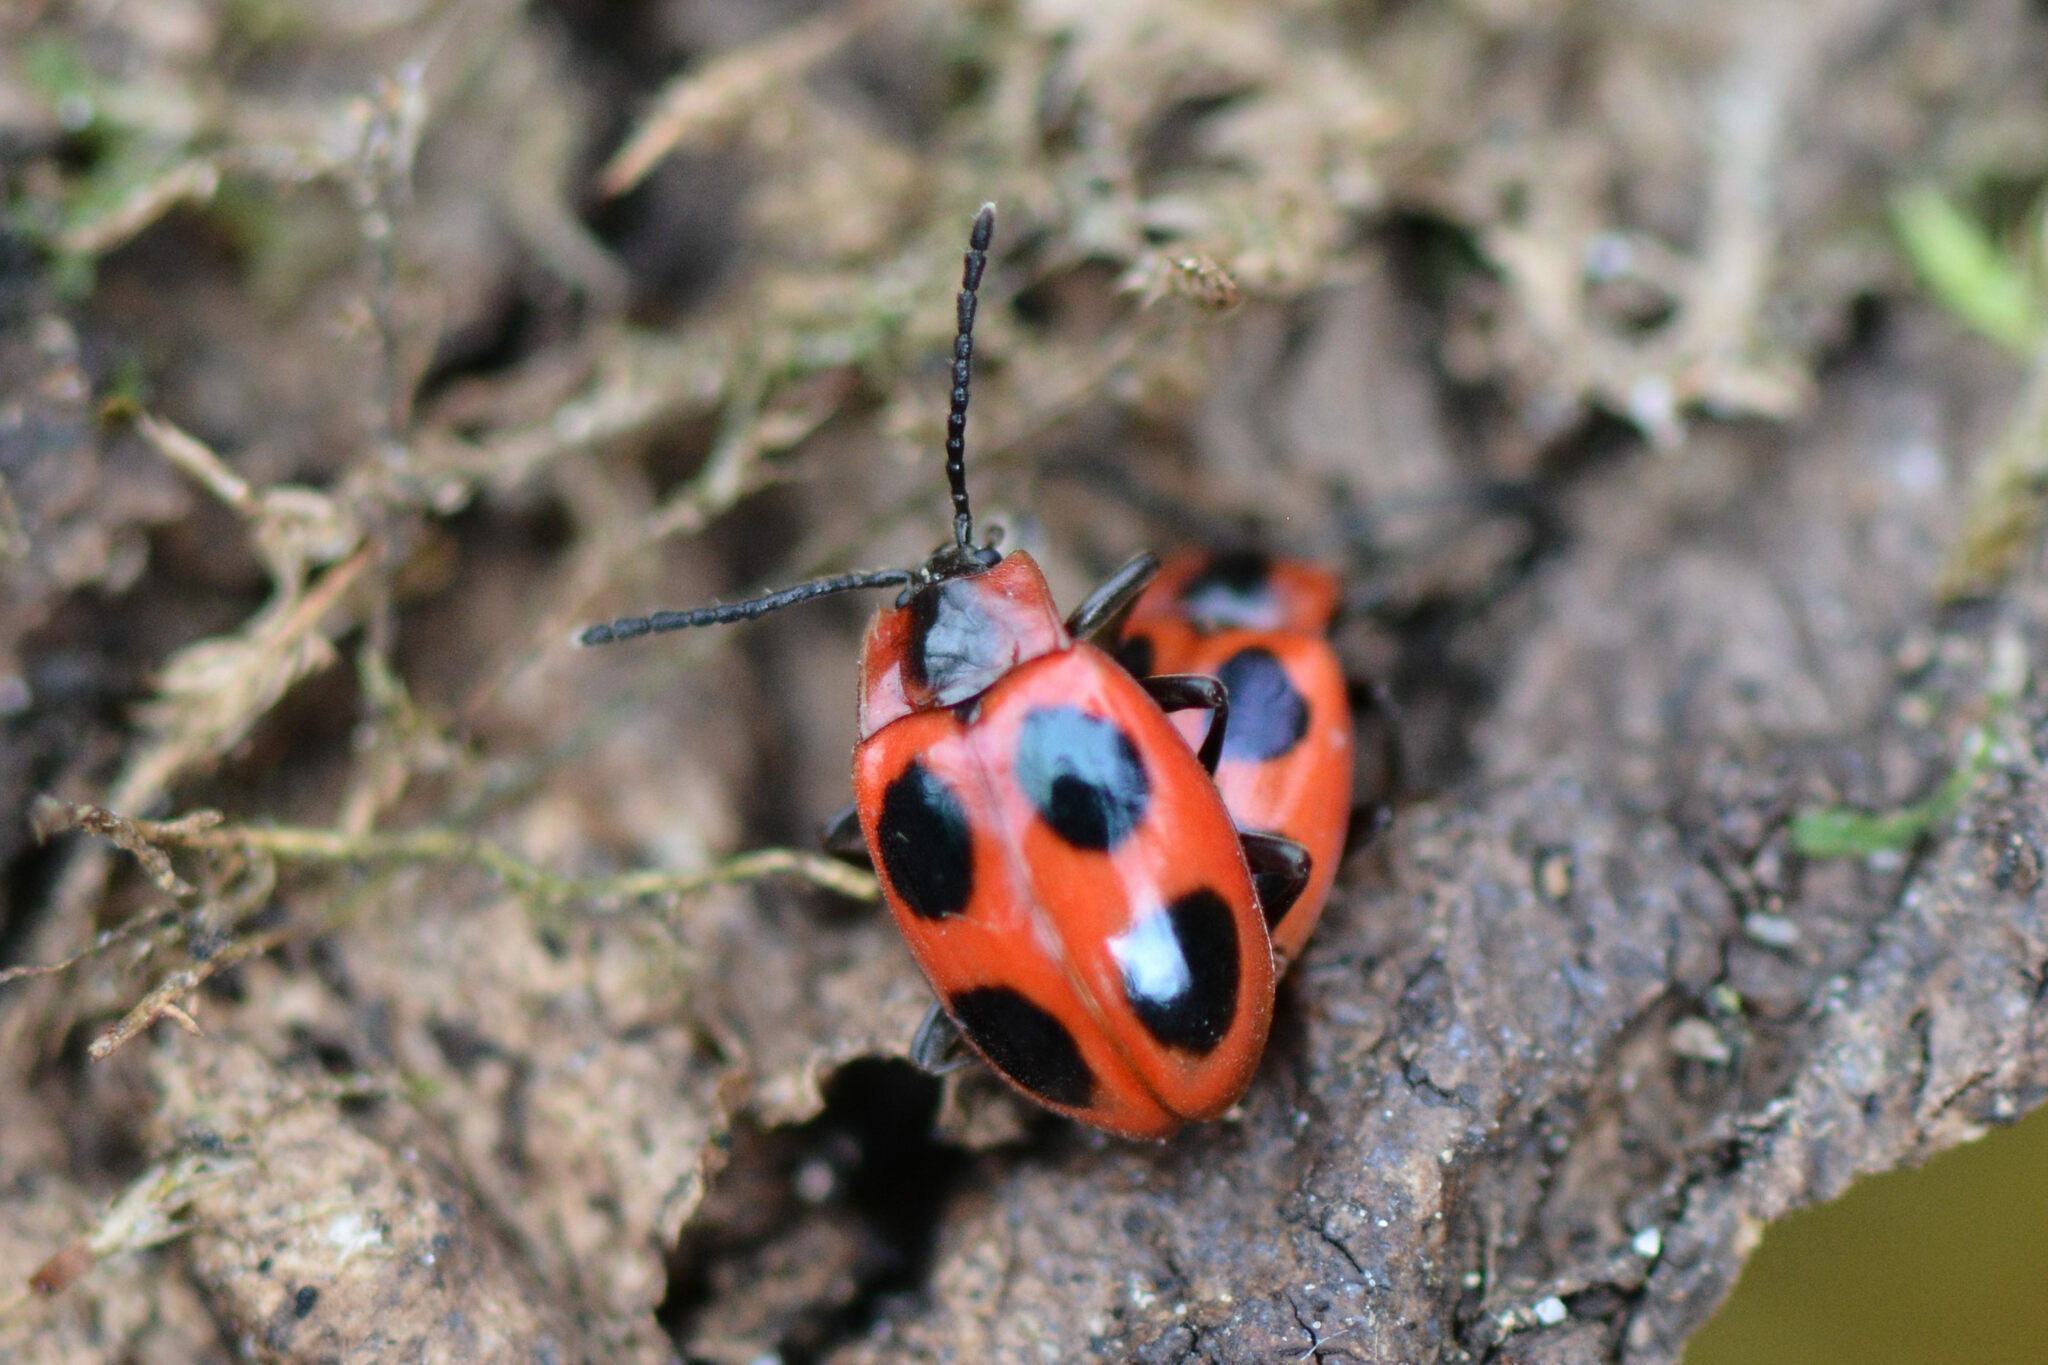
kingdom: Animalia
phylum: Arthropoda
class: Insecta
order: Coleoptera
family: Endomychidae
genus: Endomychus
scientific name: Endomychus coccineus
